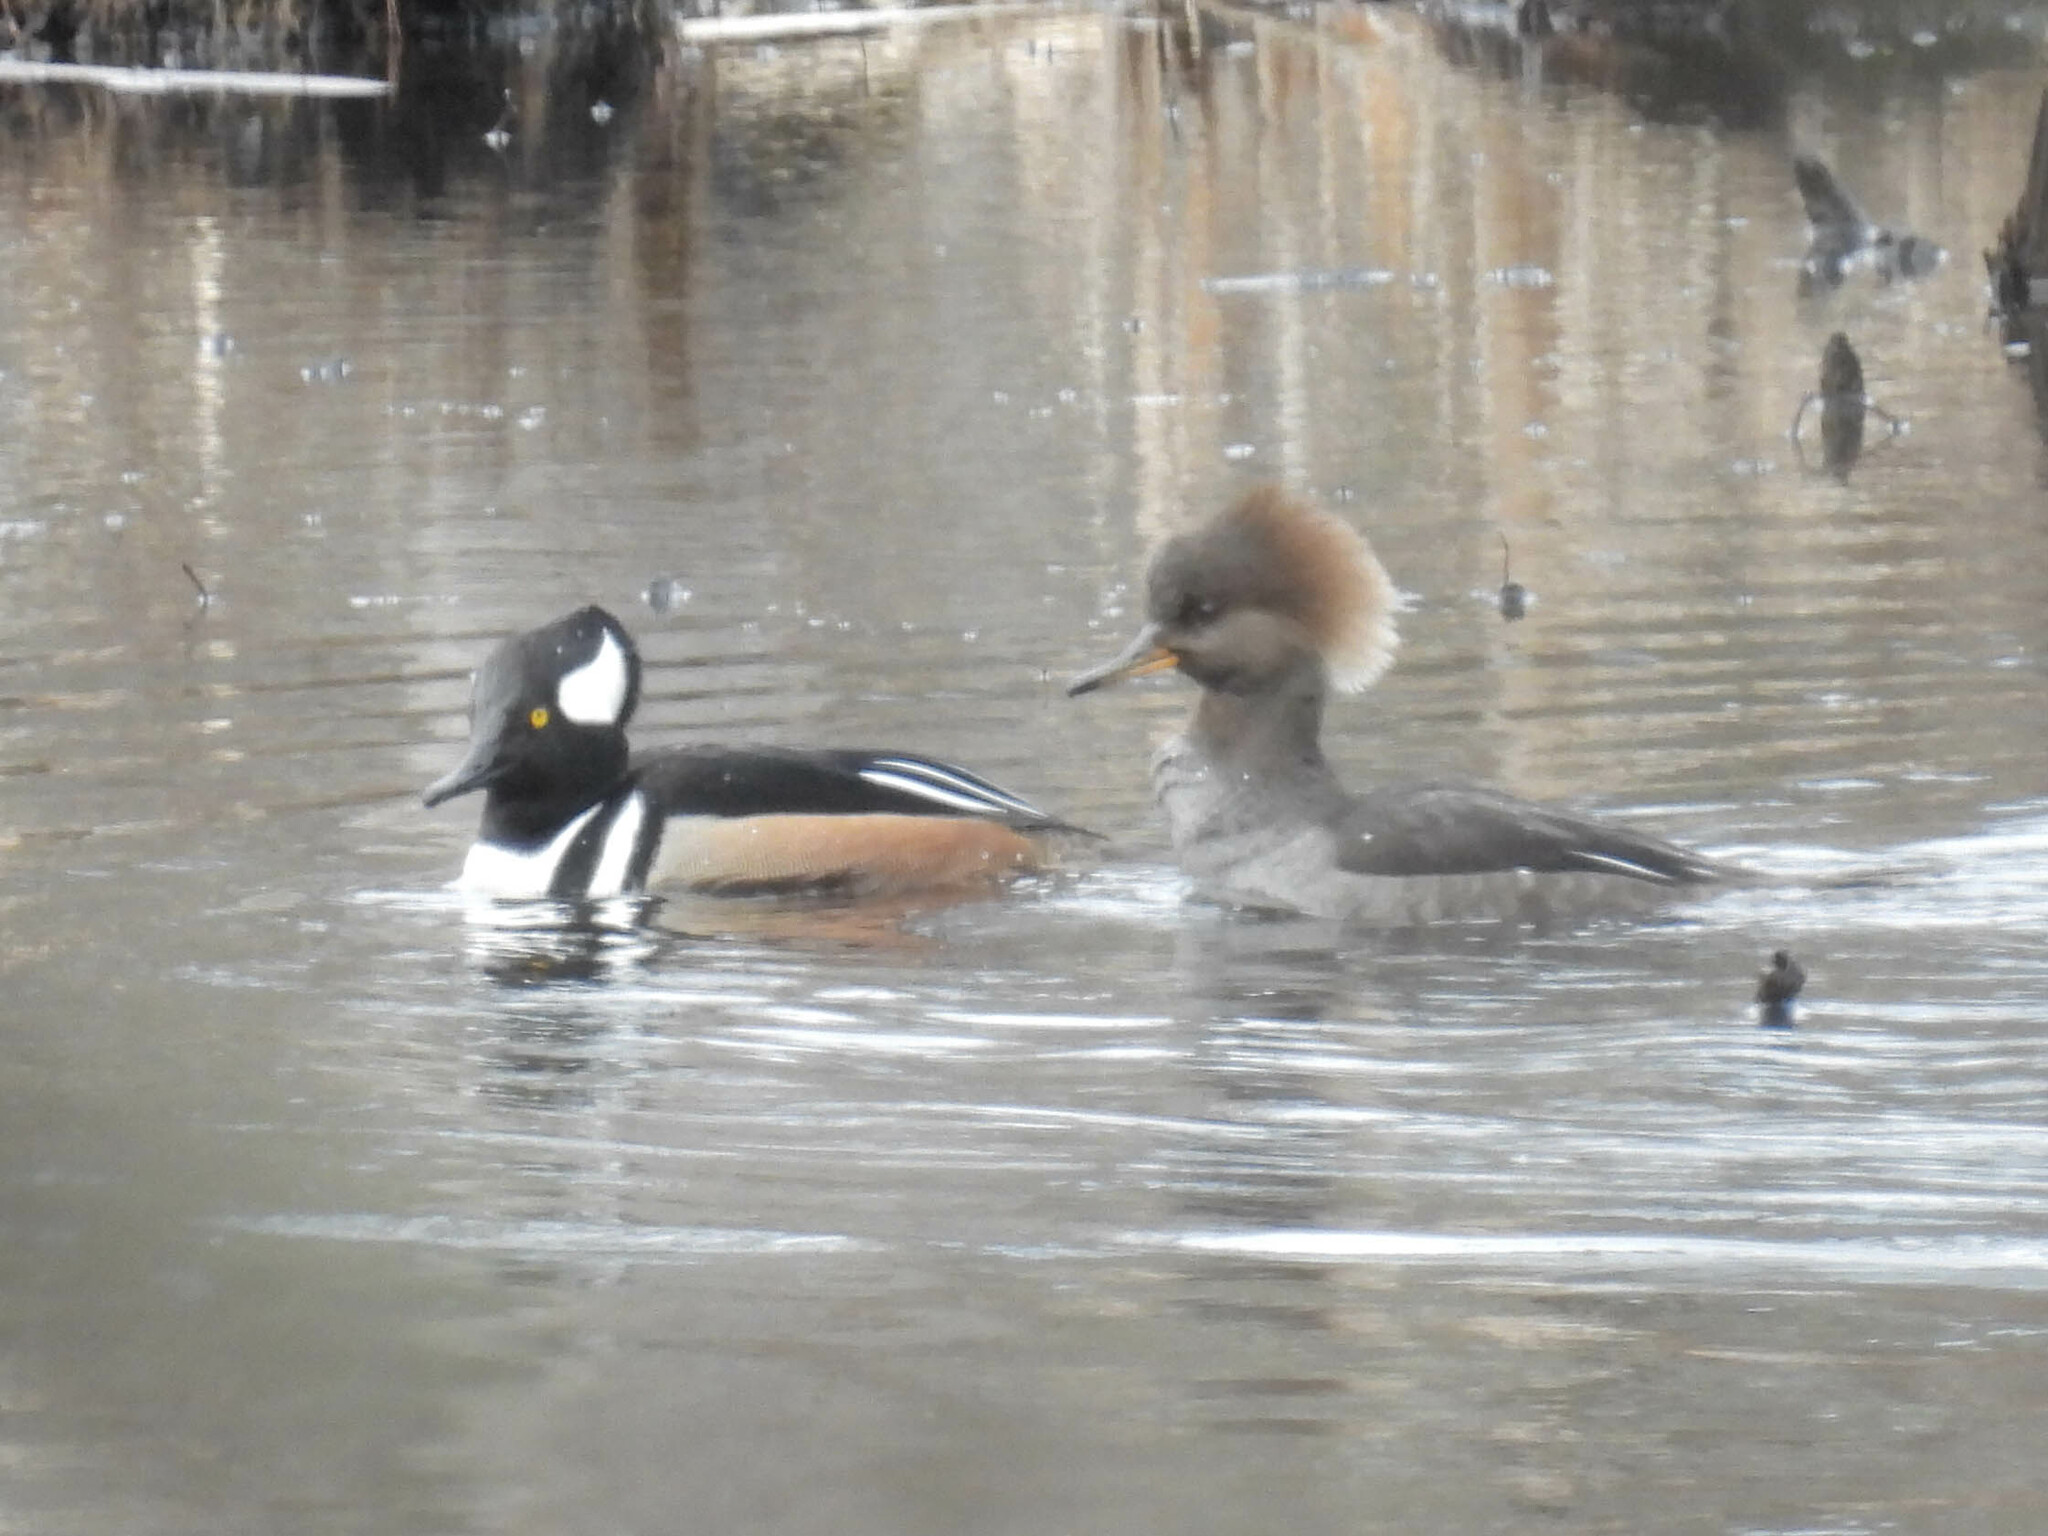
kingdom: Animalia
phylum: Chordata
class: Aves
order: Anseriformes
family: Anatidae
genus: Lophodytes
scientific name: Lophodytes cucullatus
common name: Hooded merganser
